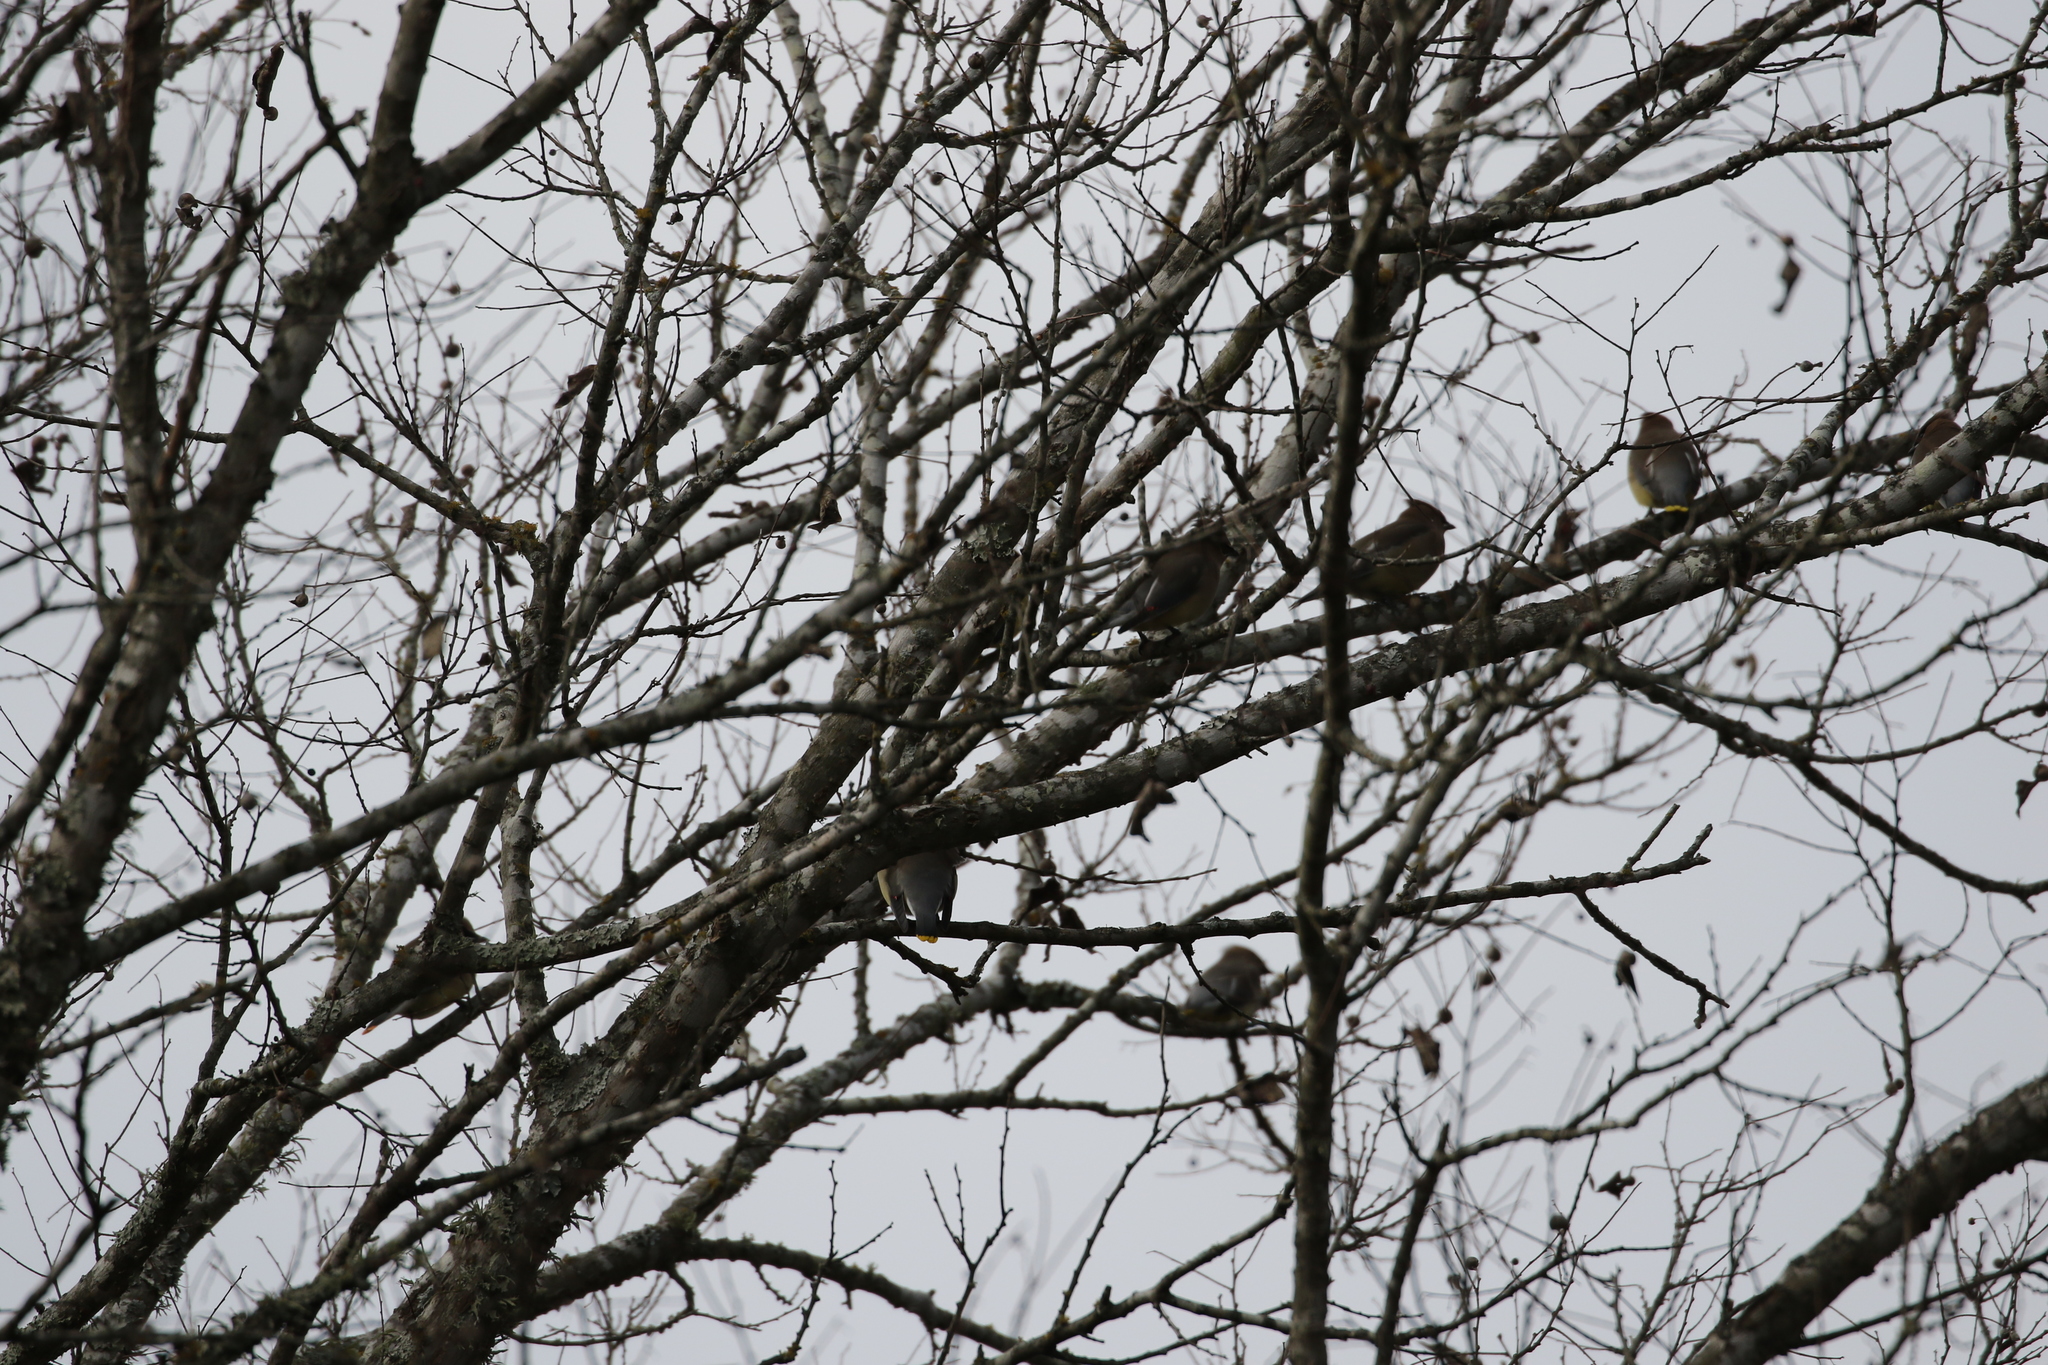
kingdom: Animalia
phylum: Chordata
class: Aves
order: Passeriformes
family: Bombycillidae
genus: Bombycilla
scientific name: Bombycilla cedrorum
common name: Cedar waxwing
